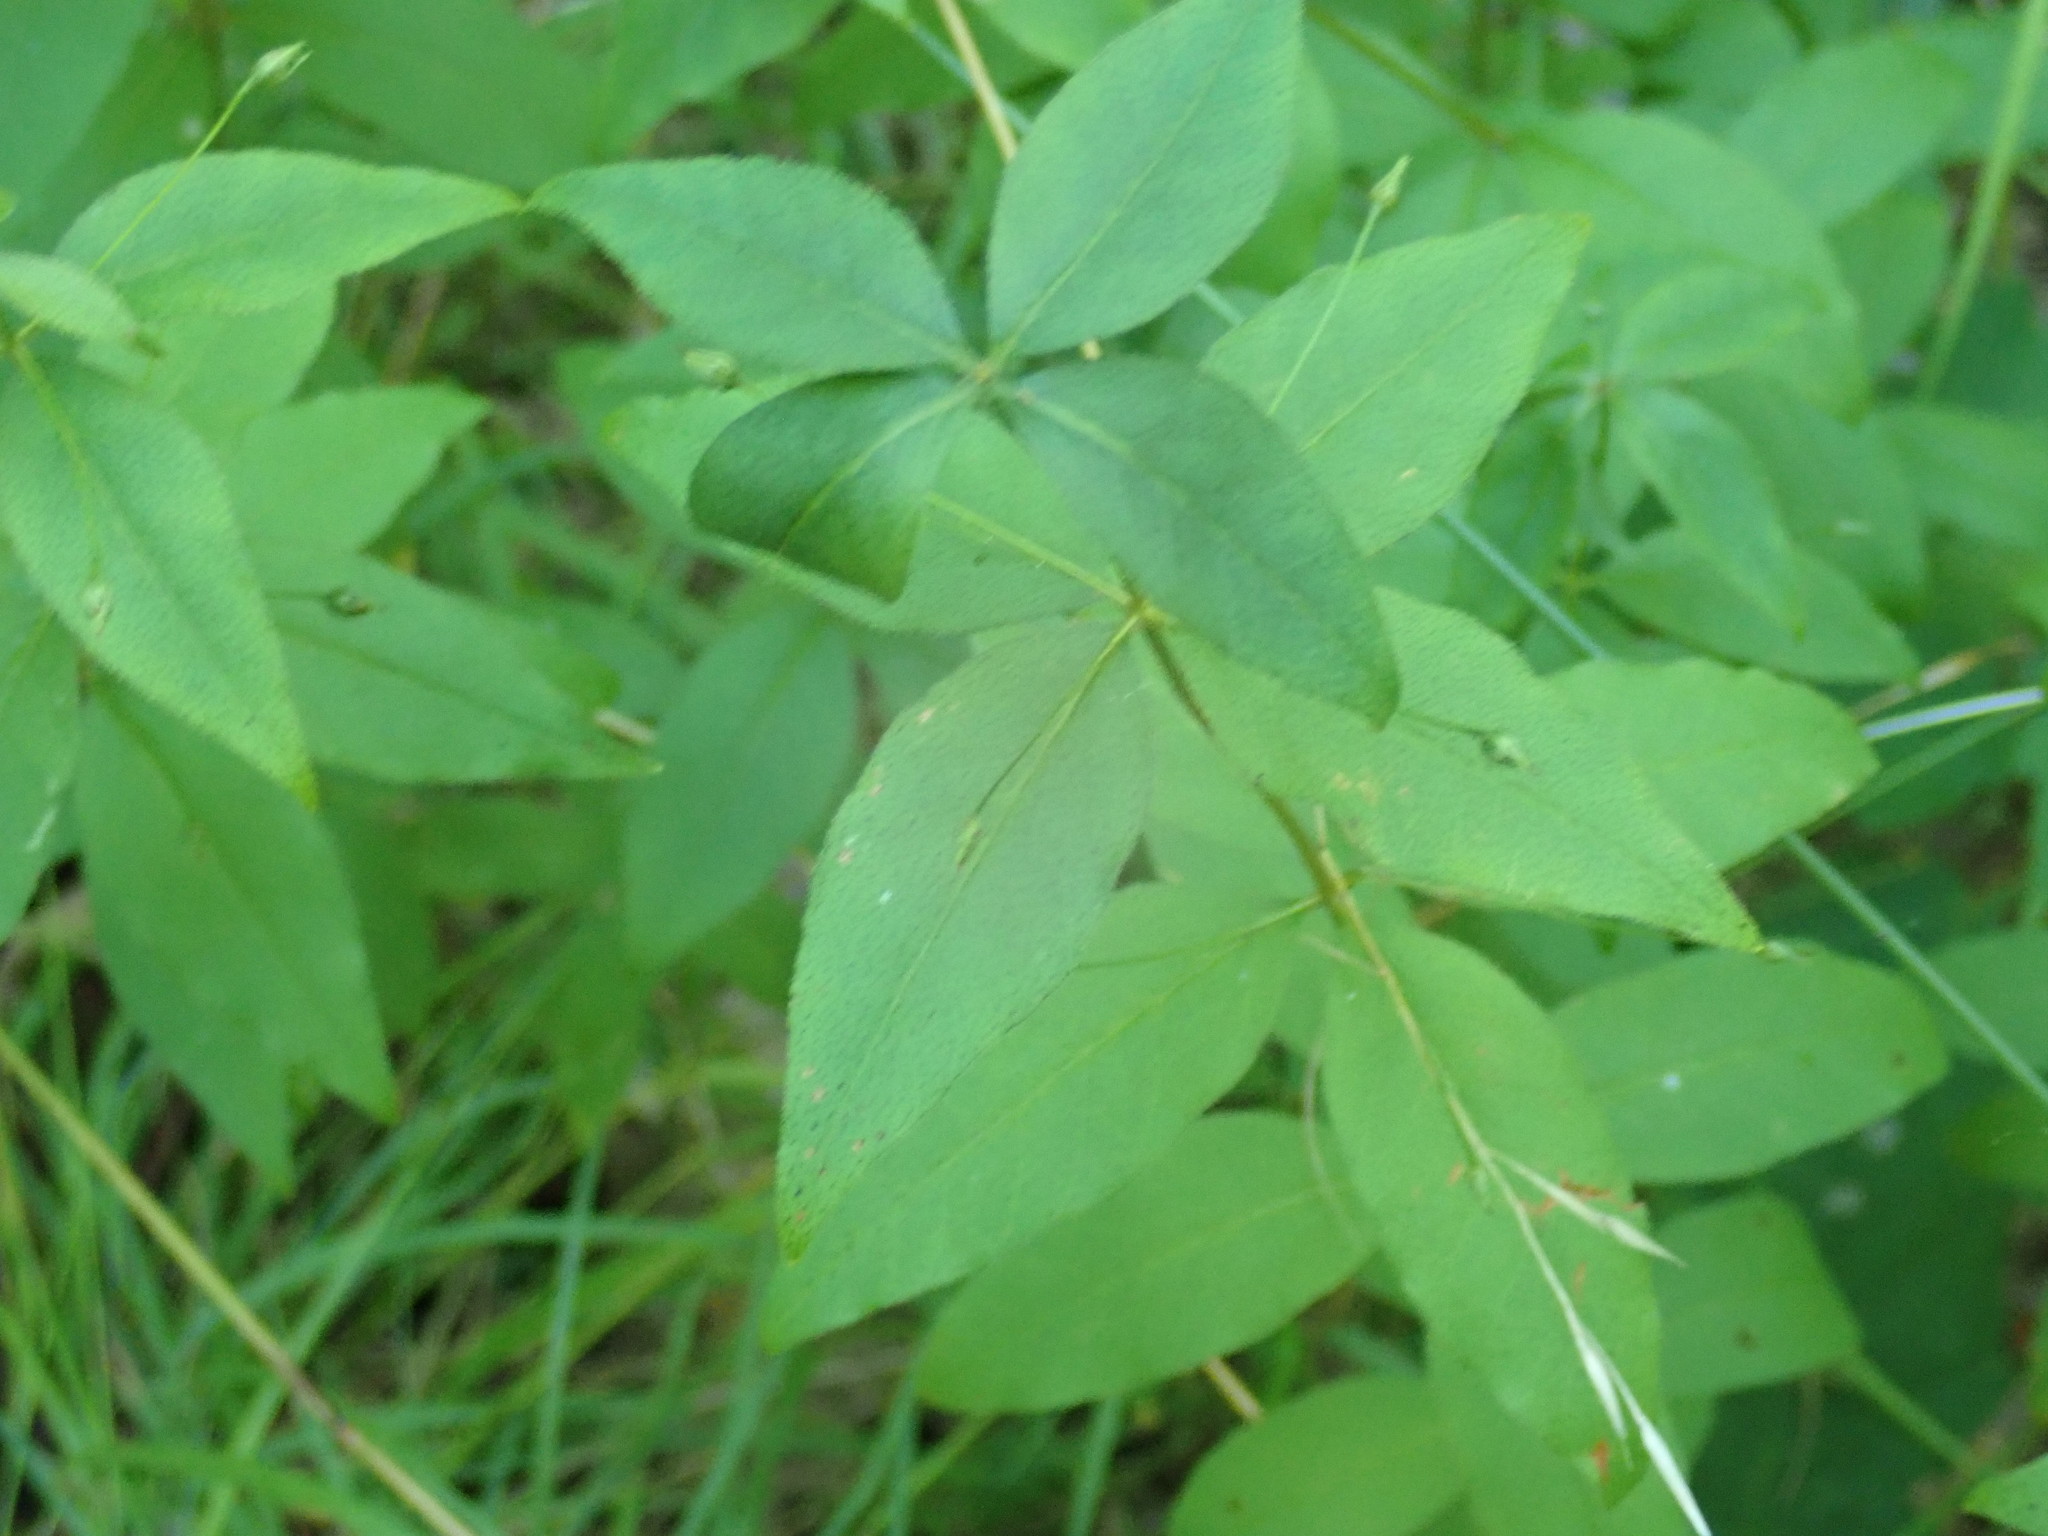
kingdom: Plantae
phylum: Tracheophyta
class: Magnoliopsida
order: Ericales
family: Primulaceae
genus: Lysimachia
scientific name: Lysimachia quadrifolia
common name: Whorled loosestrife
